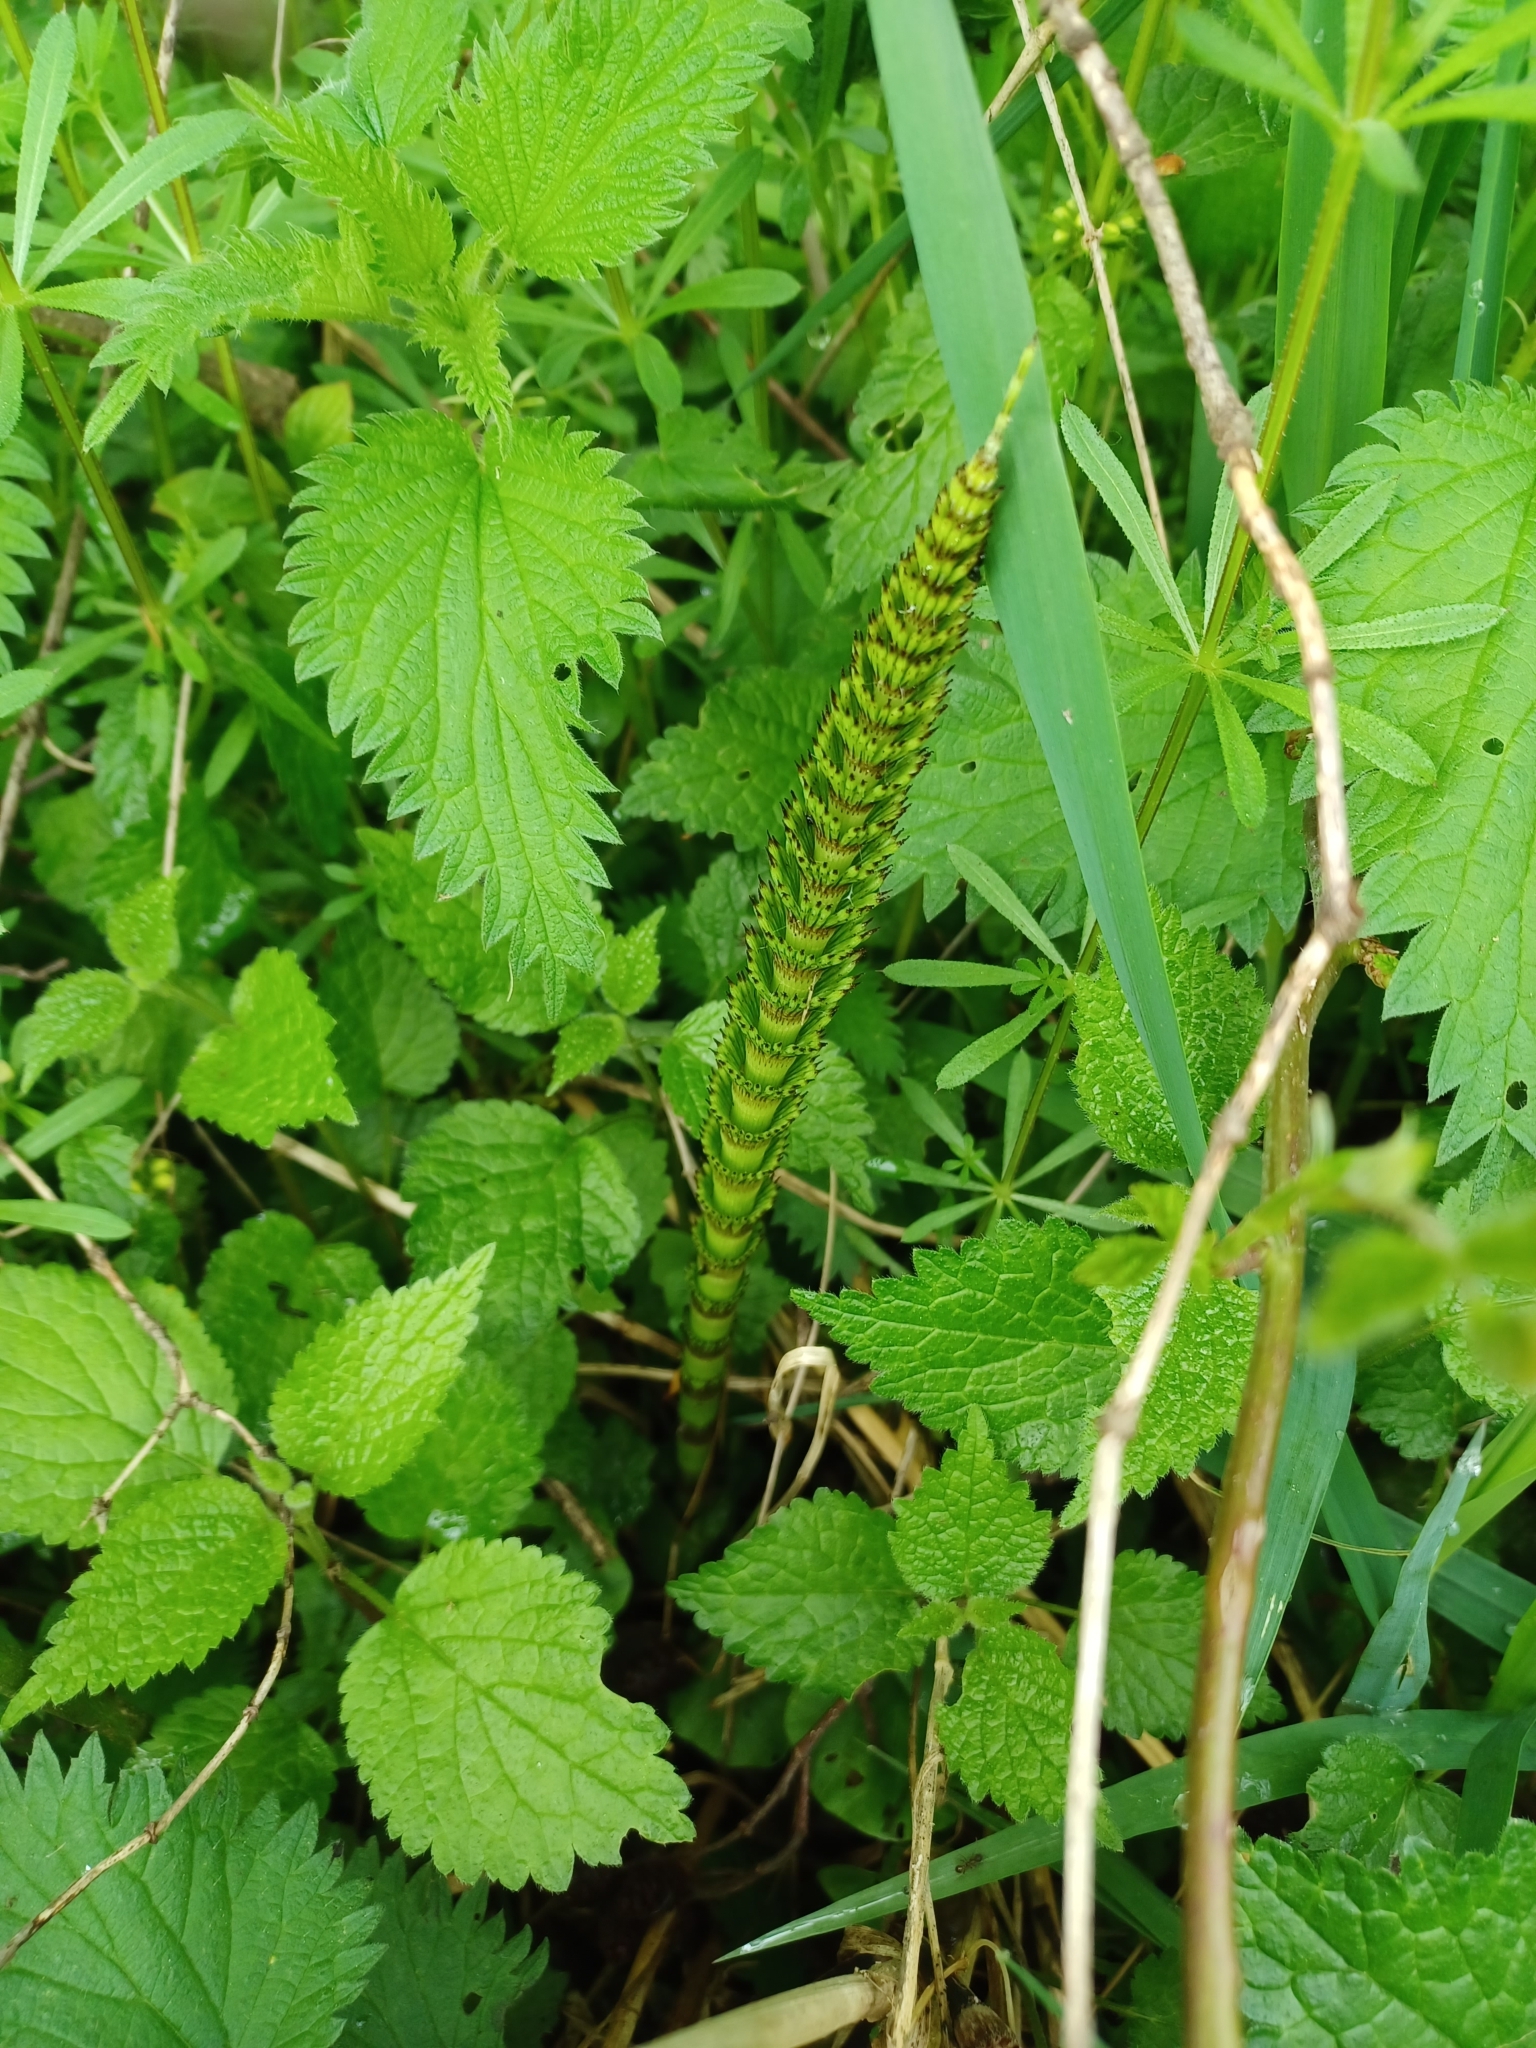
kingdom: Plantae
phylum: Tracheophyta
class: Polypodiopsida
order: Equisetales
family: Equisetaceae
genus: Equisetum
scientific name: Equisetum telmateia
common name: Great horsetail
